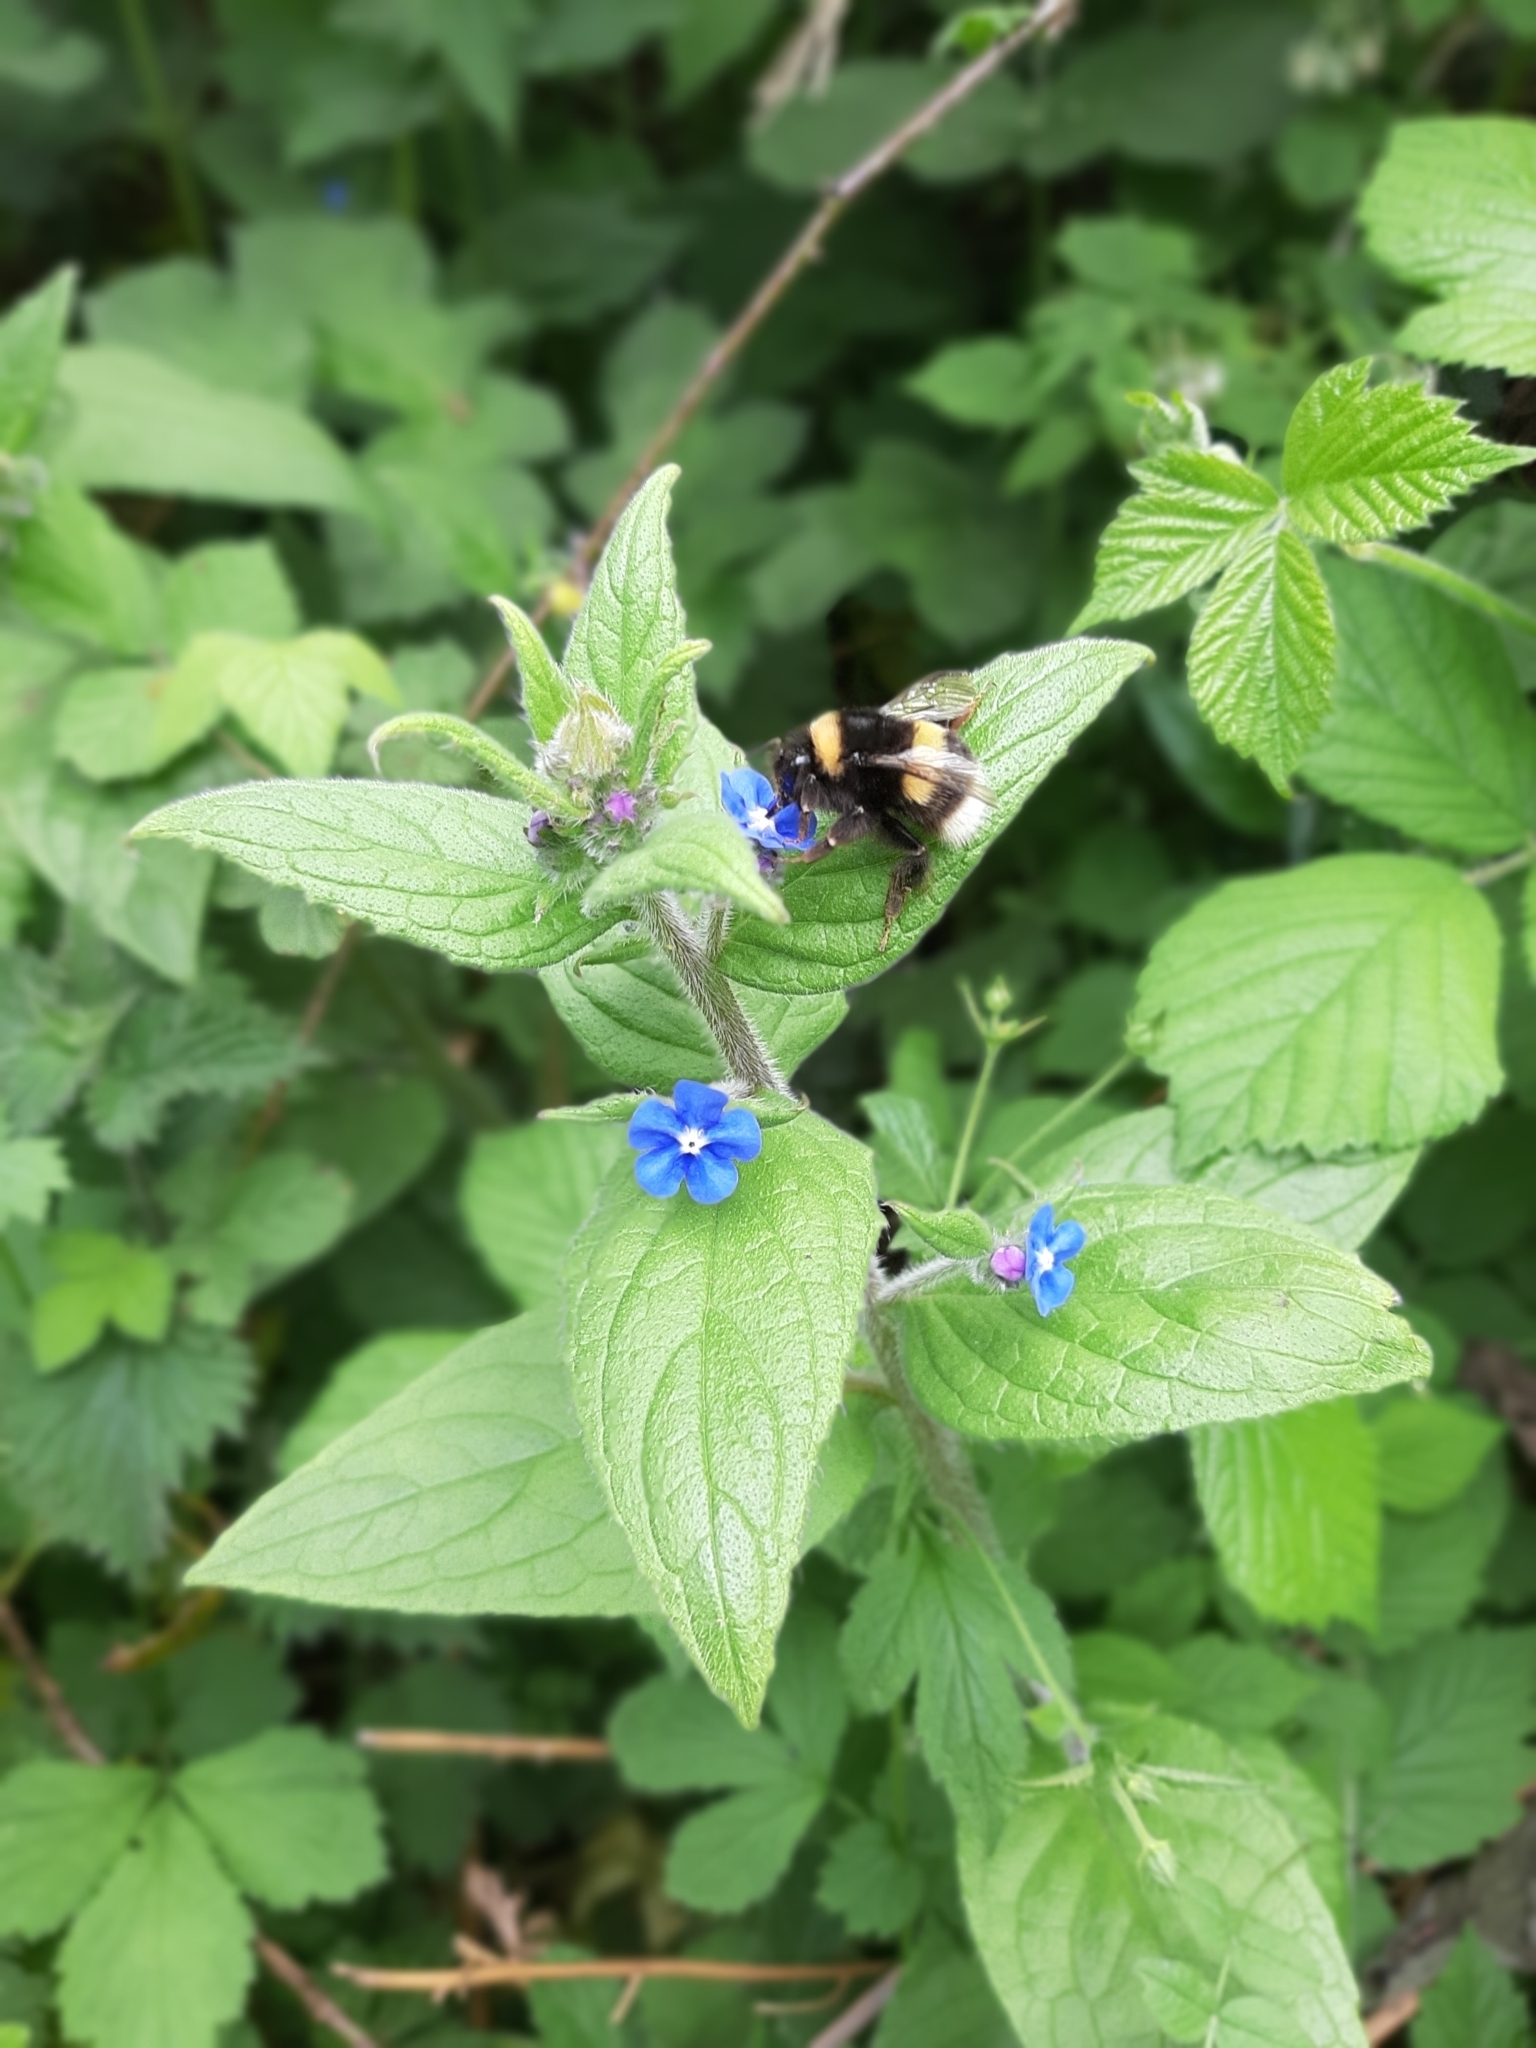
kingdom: Plantae
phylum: Tracheophyta
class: Magnoliopsida
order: Boraginales
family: Boraginaceae
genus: Pentaglottis
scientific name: Pentaglottis sempervirens
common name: Green alkanet
